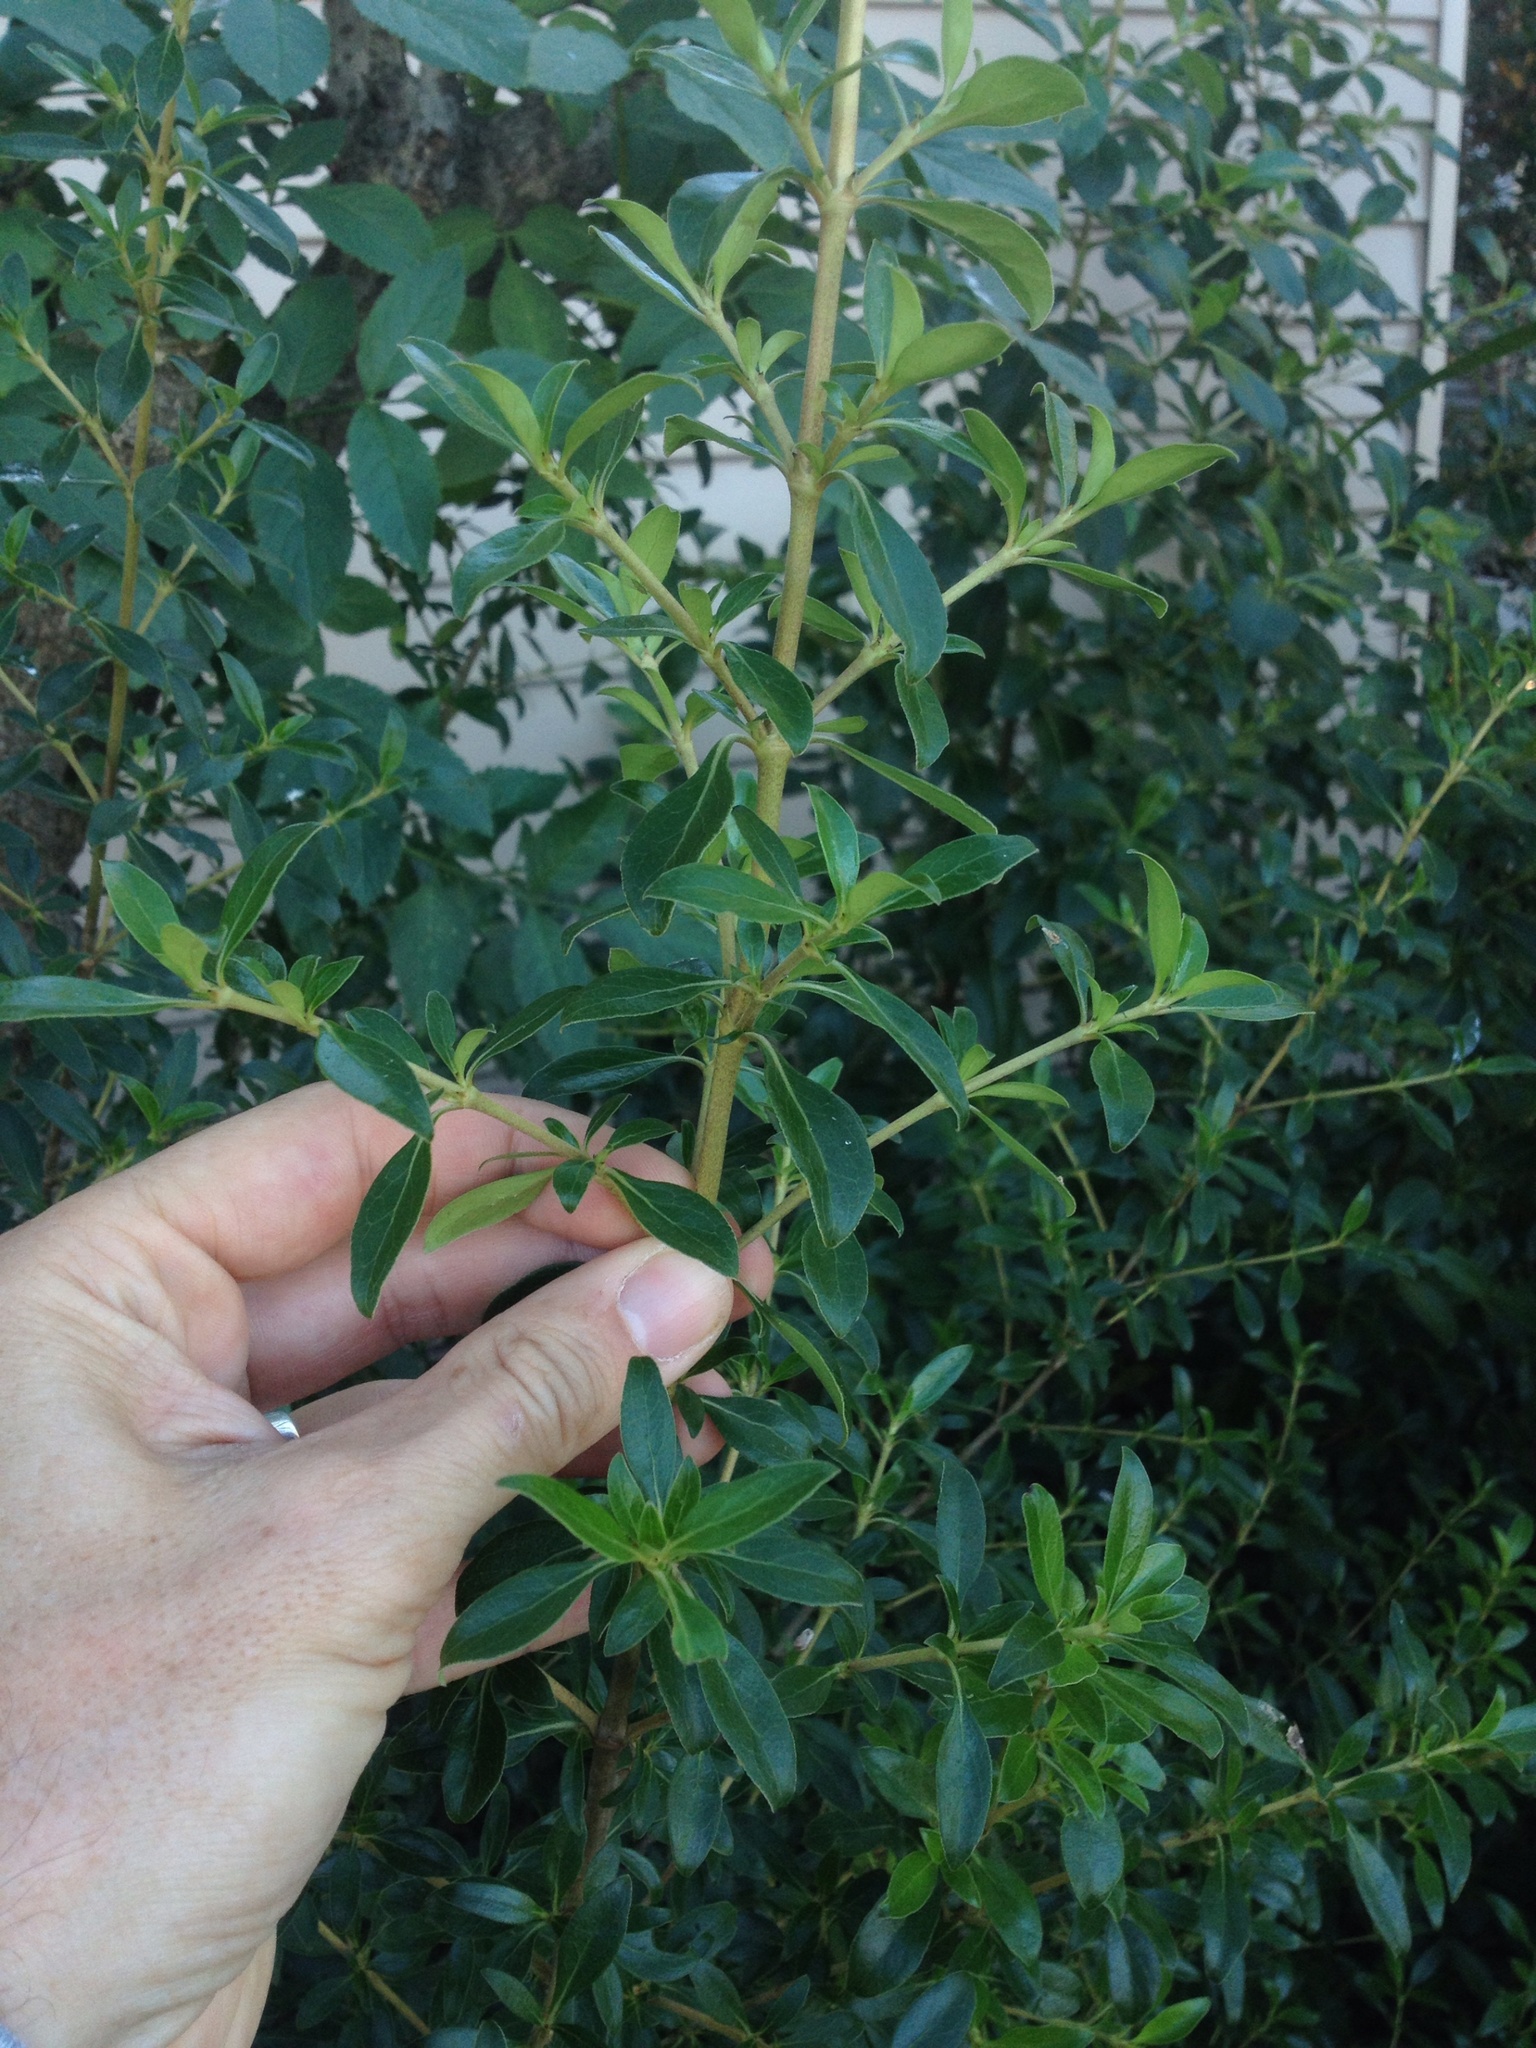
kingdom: Plantae
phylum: Tracheophyta
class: Magnoliopsida
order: Gentianales
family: Rubiaceae
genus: Coprosma
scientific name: Coprosma cunninghamii
